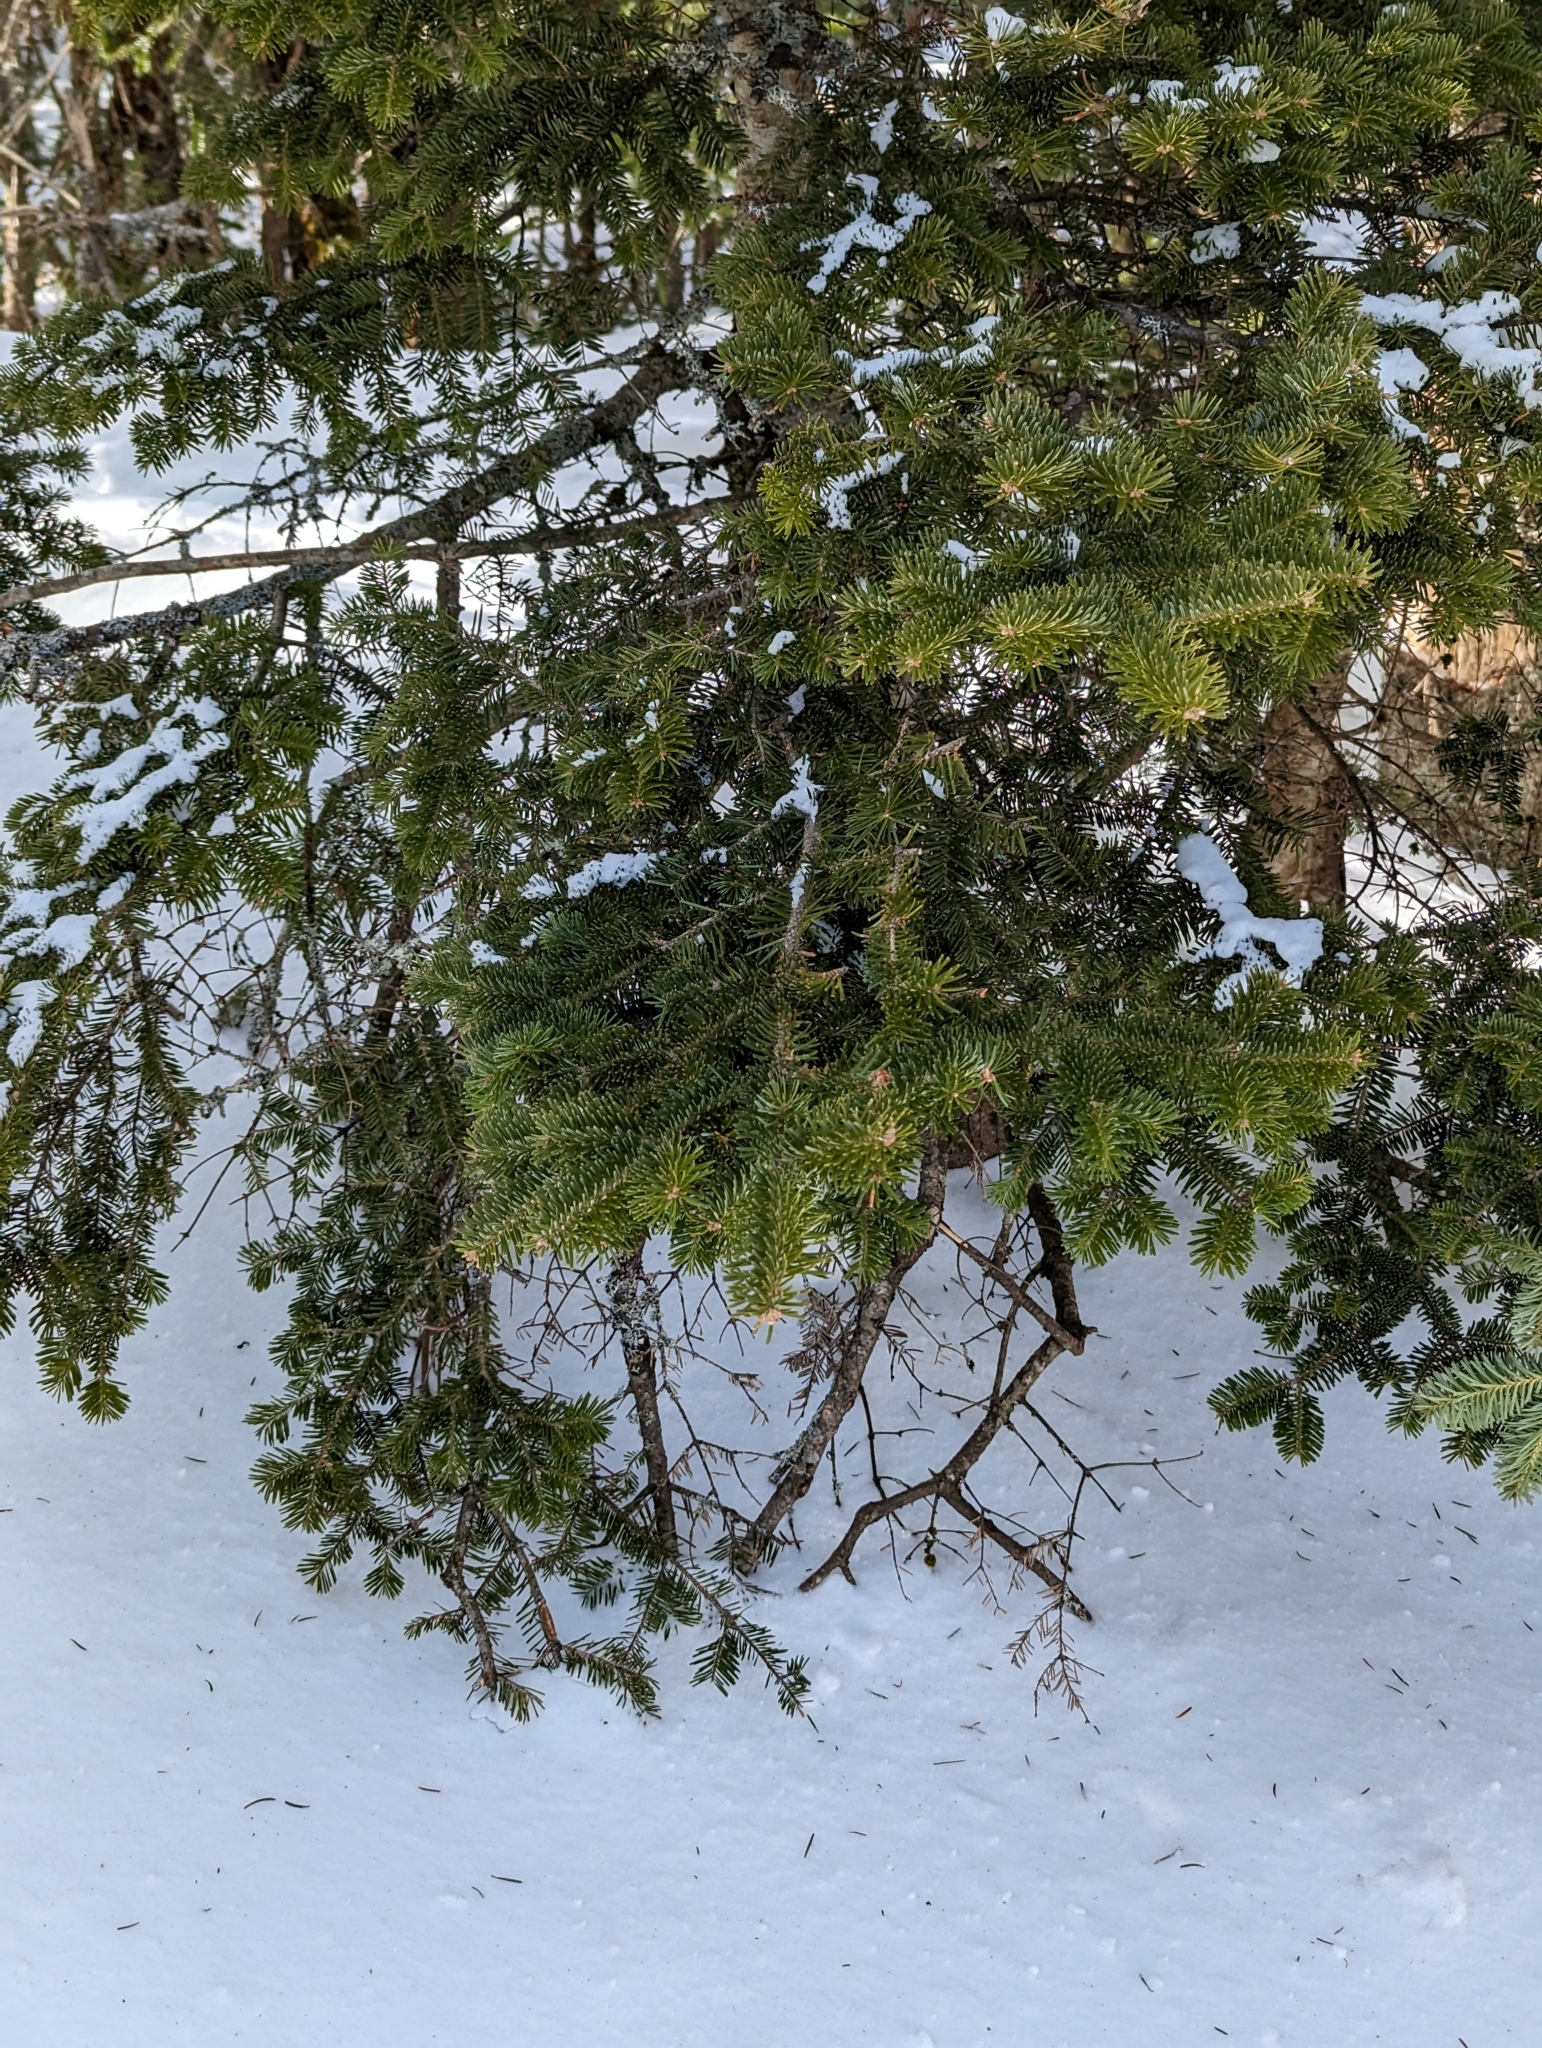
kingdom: Plantae
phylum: Tracheophyta
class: Pinopsida
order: Pinales
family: Pinaceae
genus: Abies
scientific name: Abies balsamea
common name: Balsam fir
